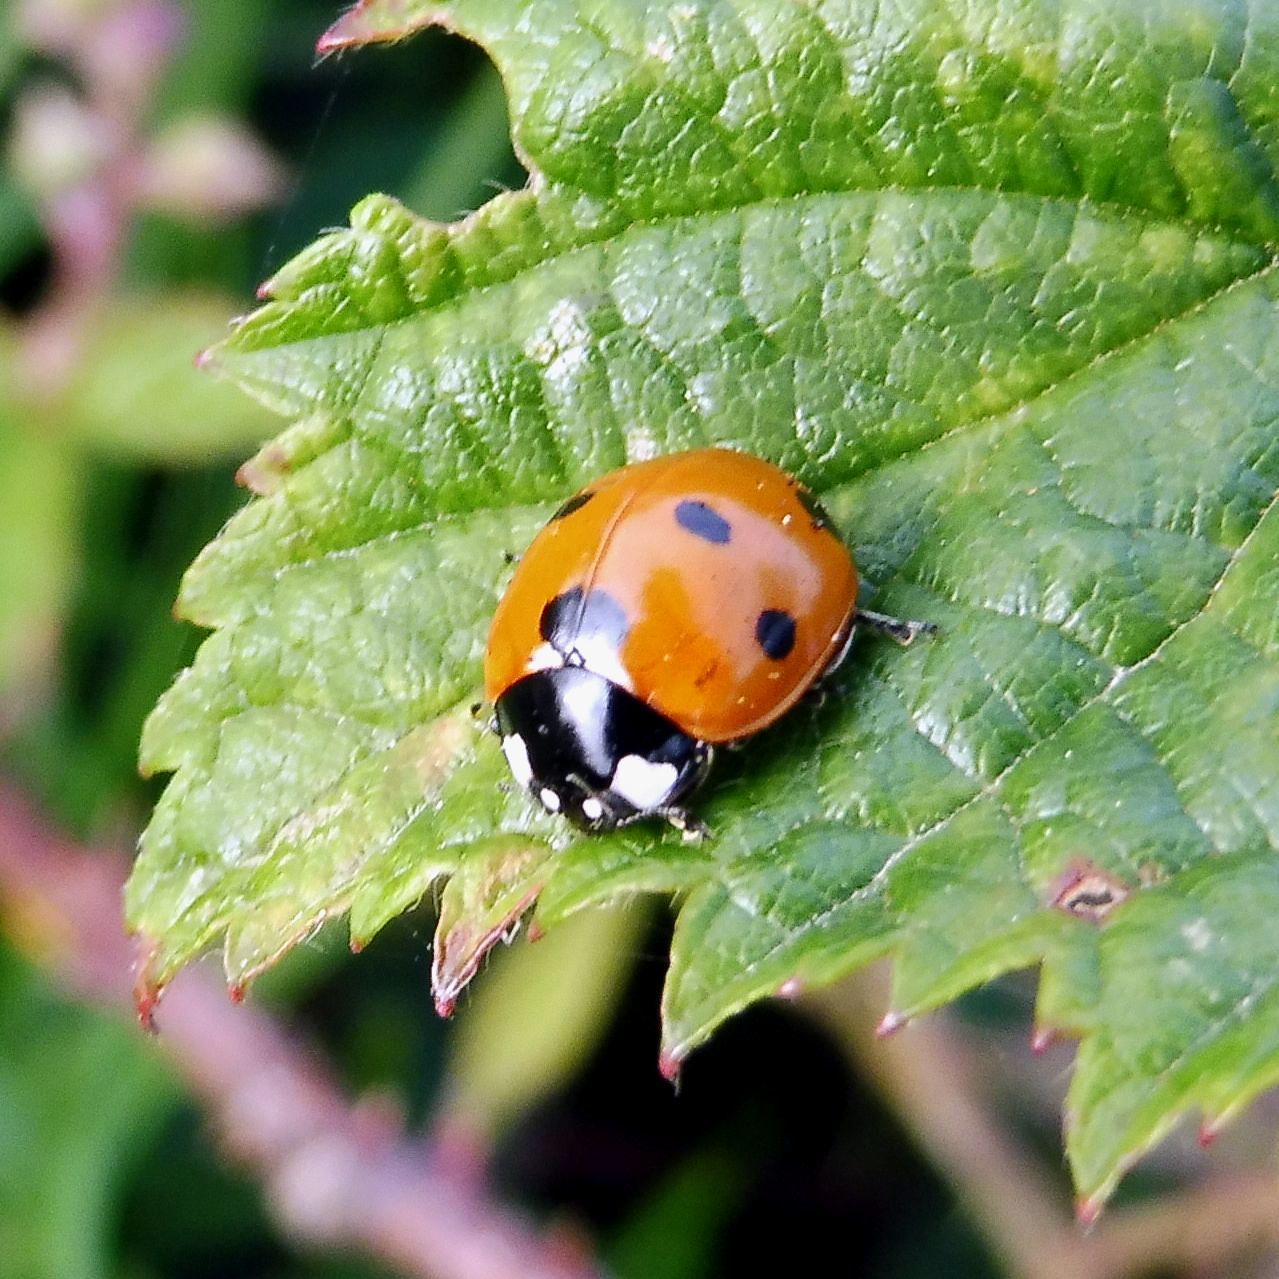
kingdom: Animalia
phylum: Arthropoda
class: Insecta
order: Coleoptera
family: Coccinellidae
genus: Coccinella
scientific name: Coccinella septempunctata
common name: Sevenspotted lady beetle
